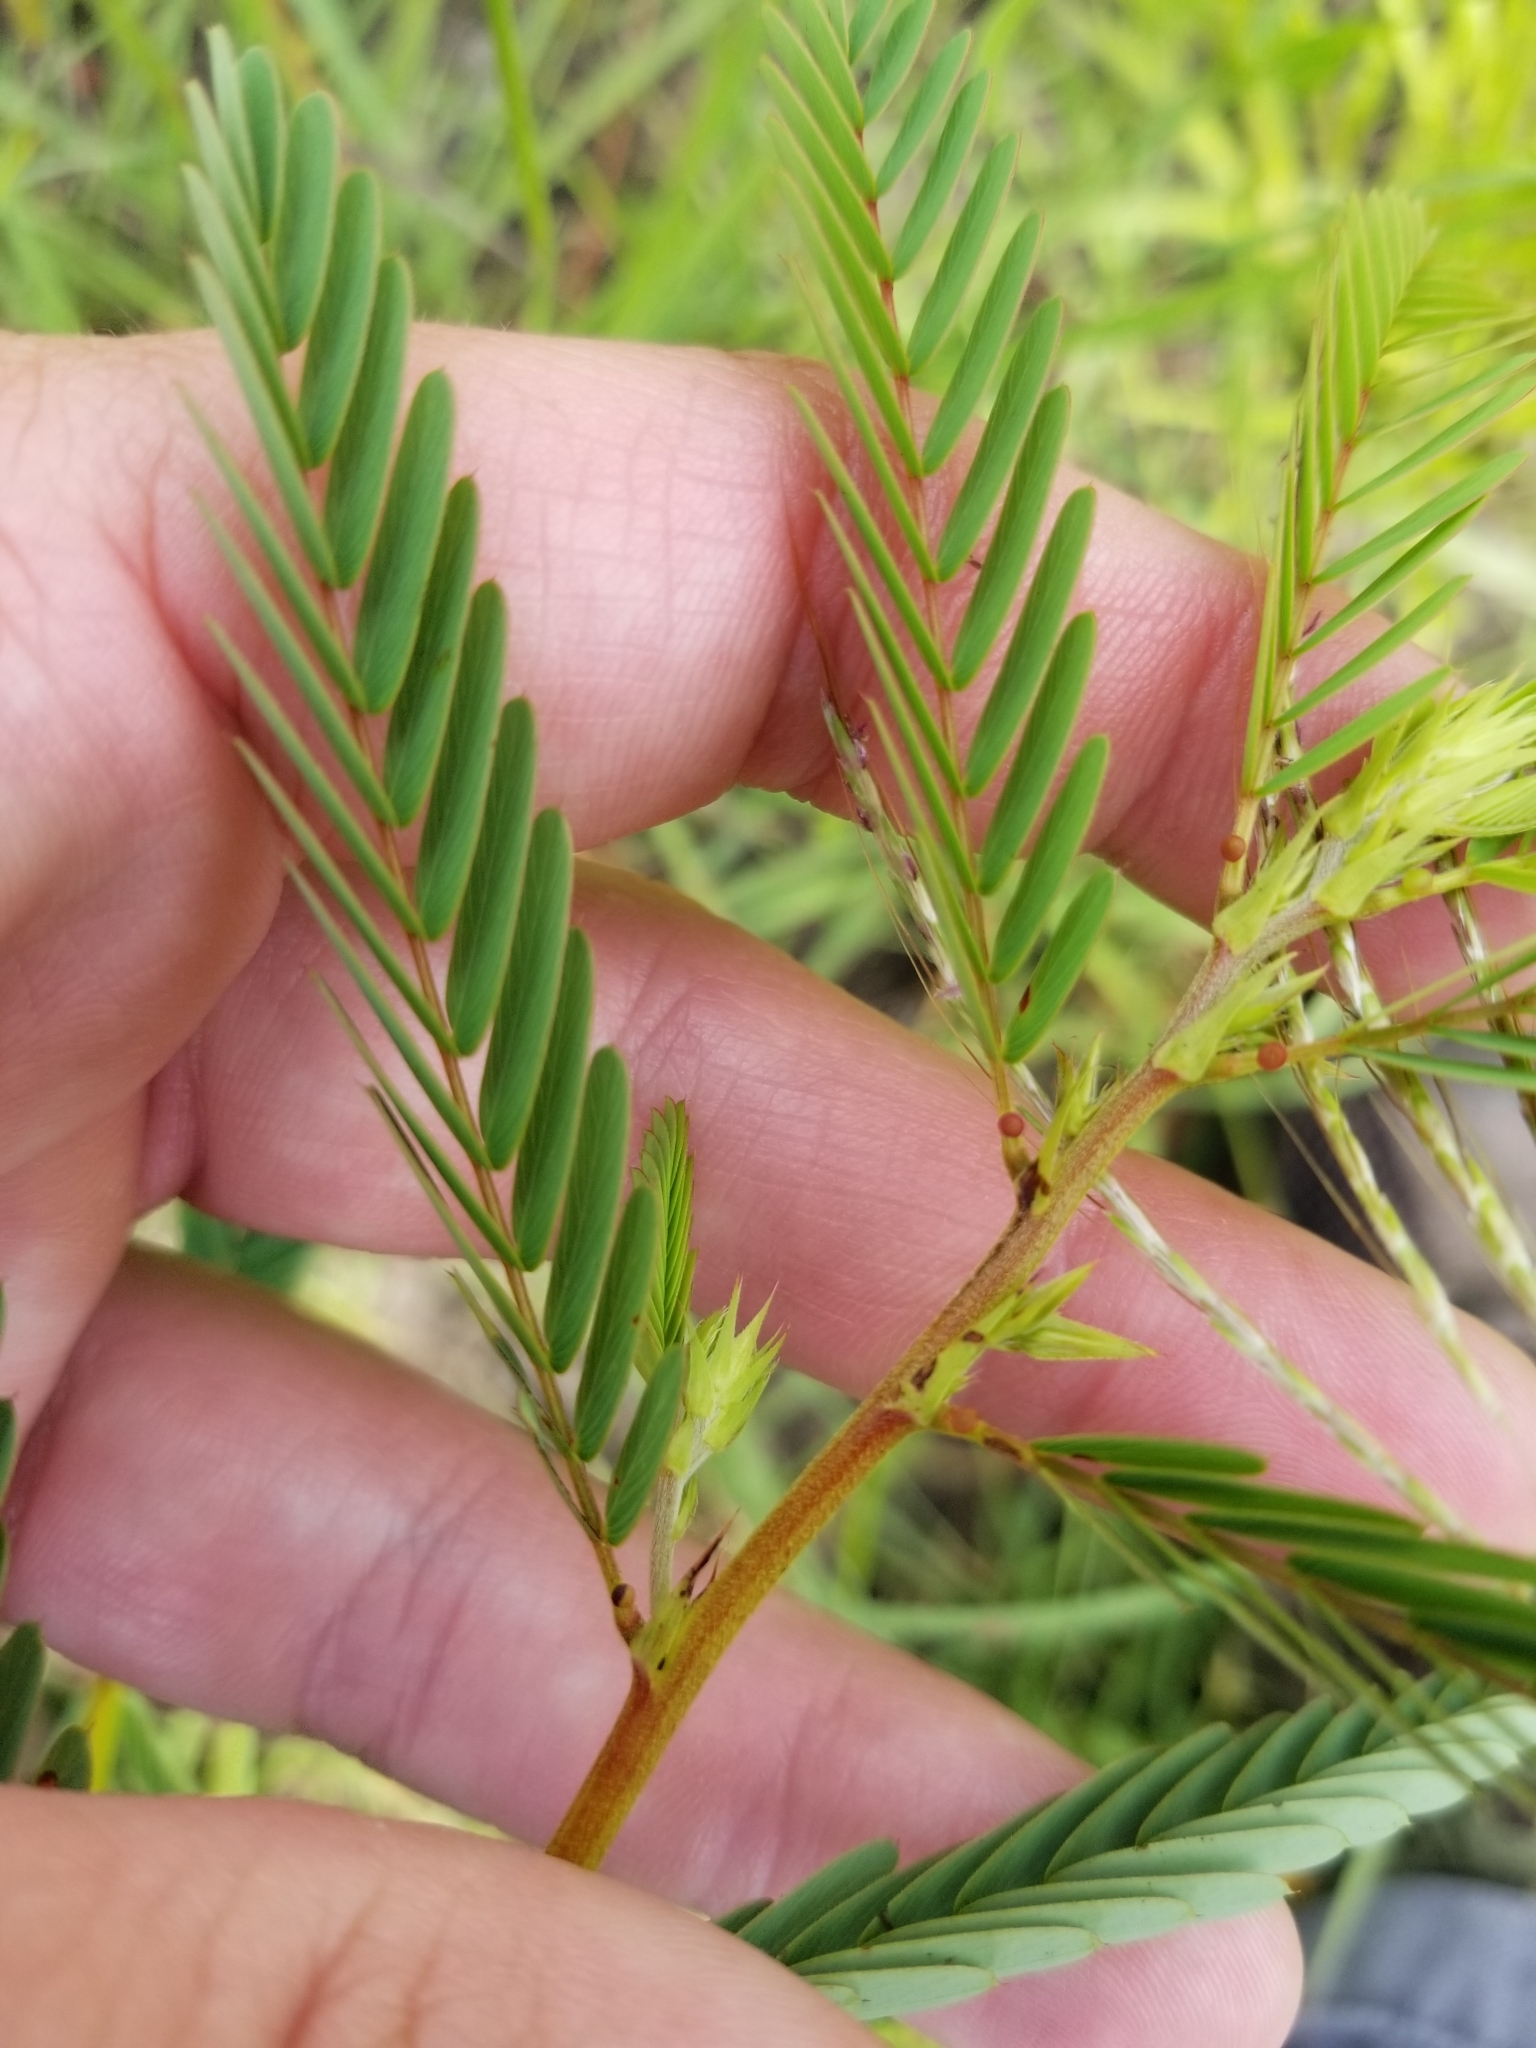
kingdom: Plantae
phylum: Tracheophyta
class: Magnoliopsida
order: Fabales
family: Fabaceae
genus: Chamaecrista
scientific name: Chamaecrista fasciculata
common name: Golden cassia
